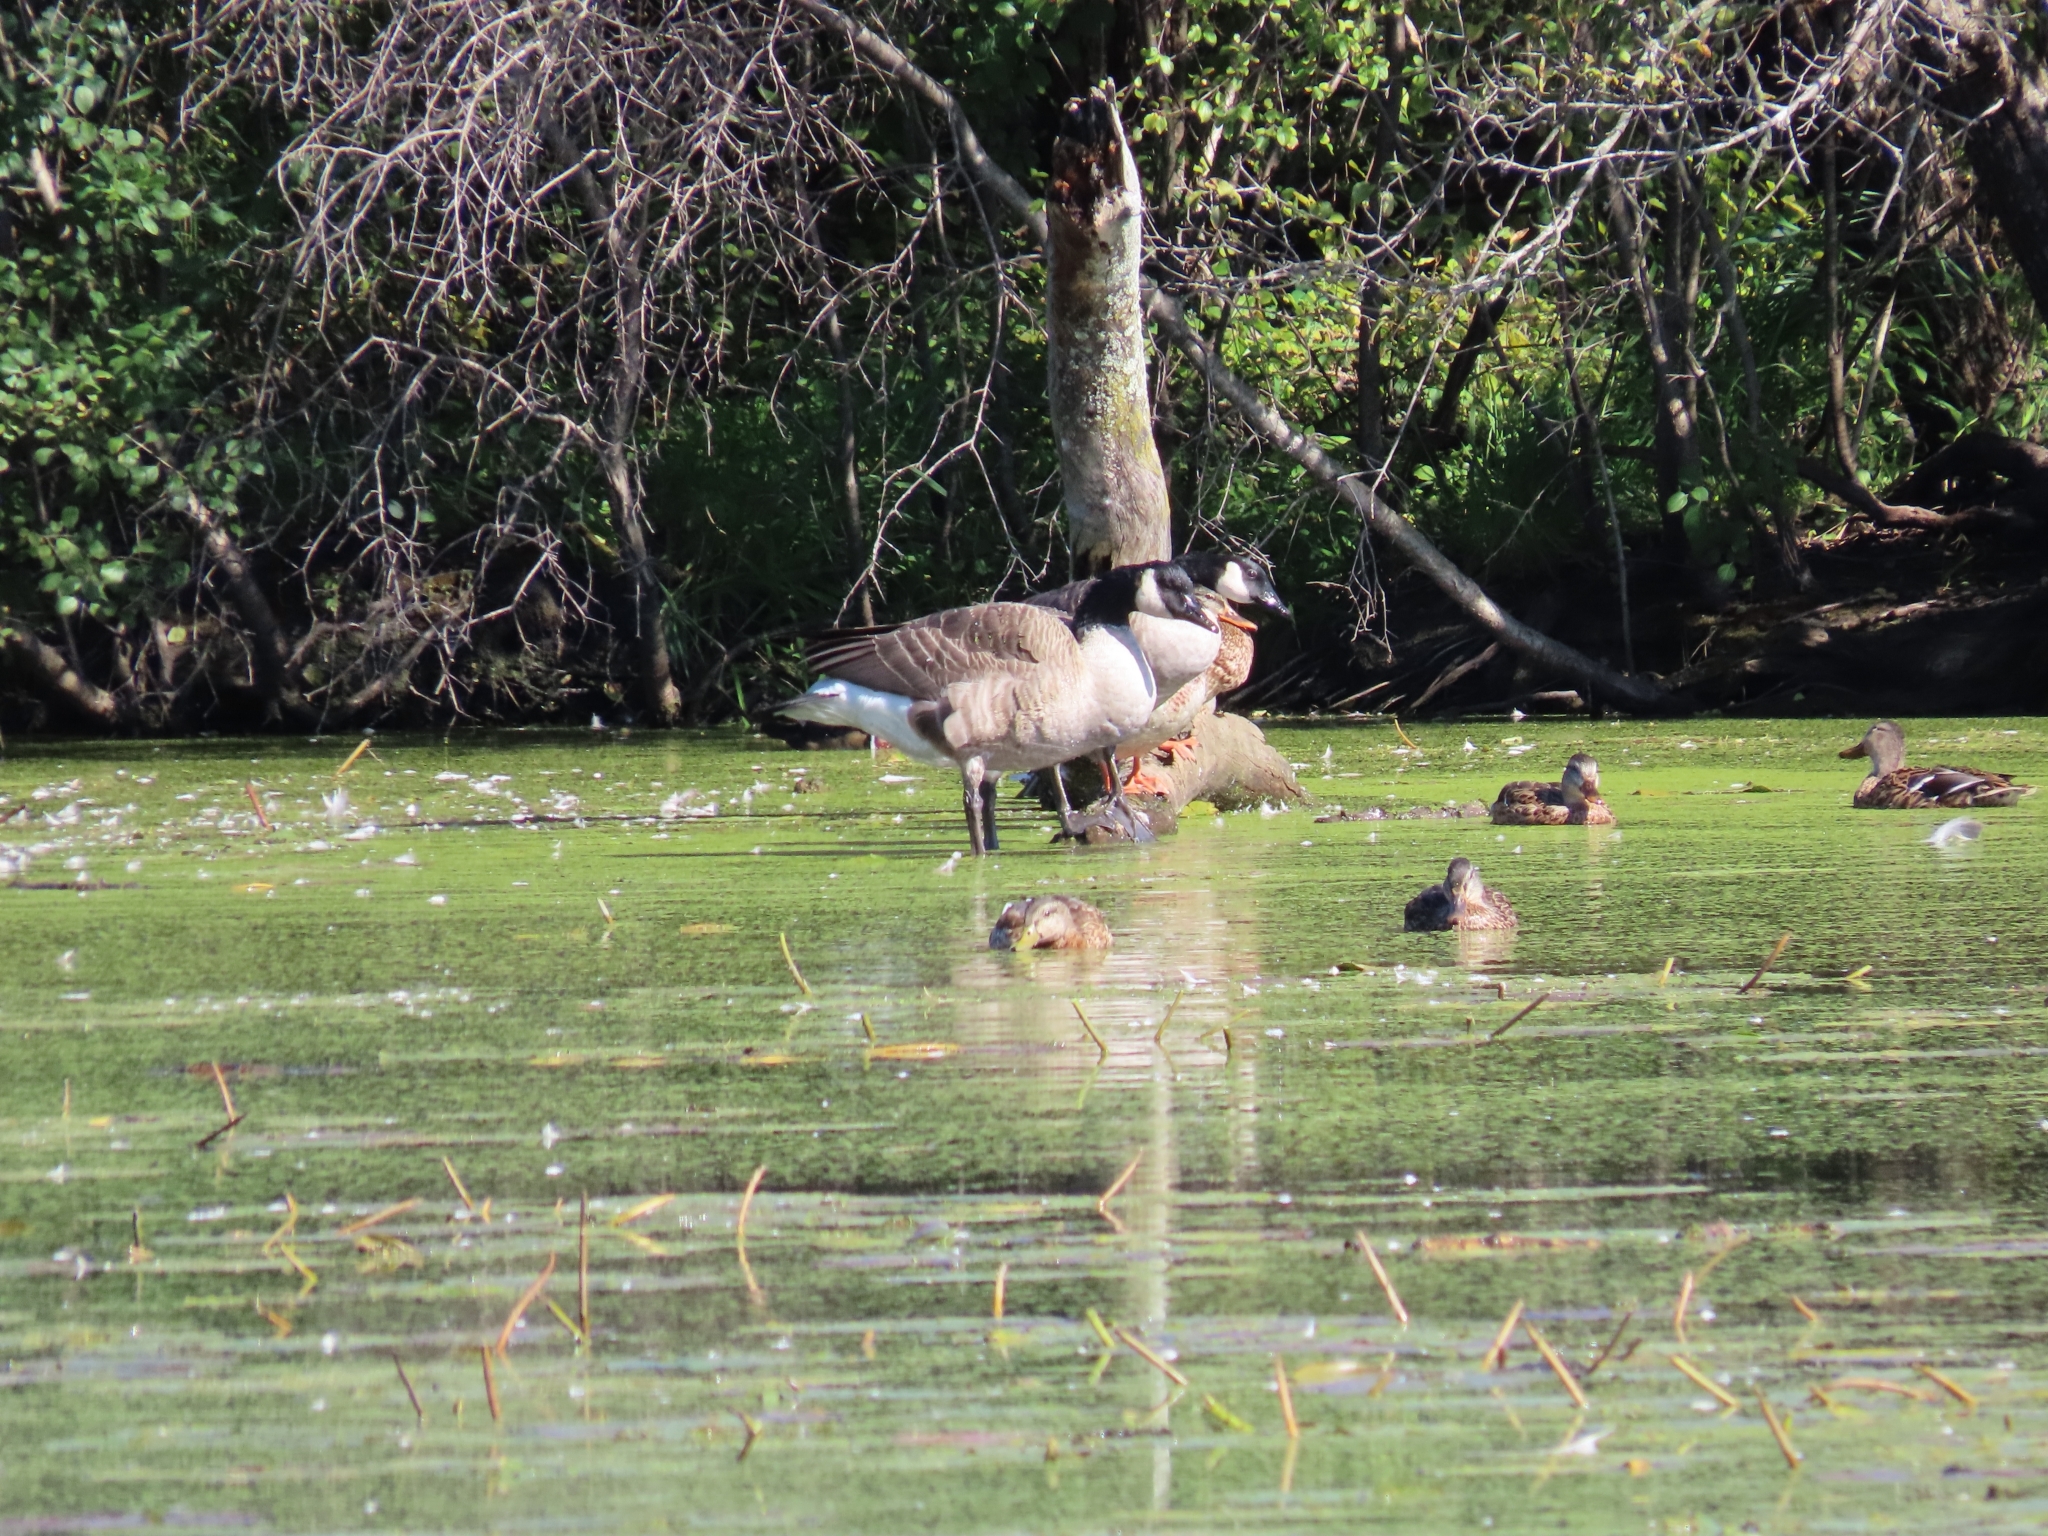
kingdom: Animalia
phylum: Chordata
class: Aves
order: Anseriformes
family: Anatidae
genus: Branta
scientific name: Branta canadensis
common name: Canada goose
